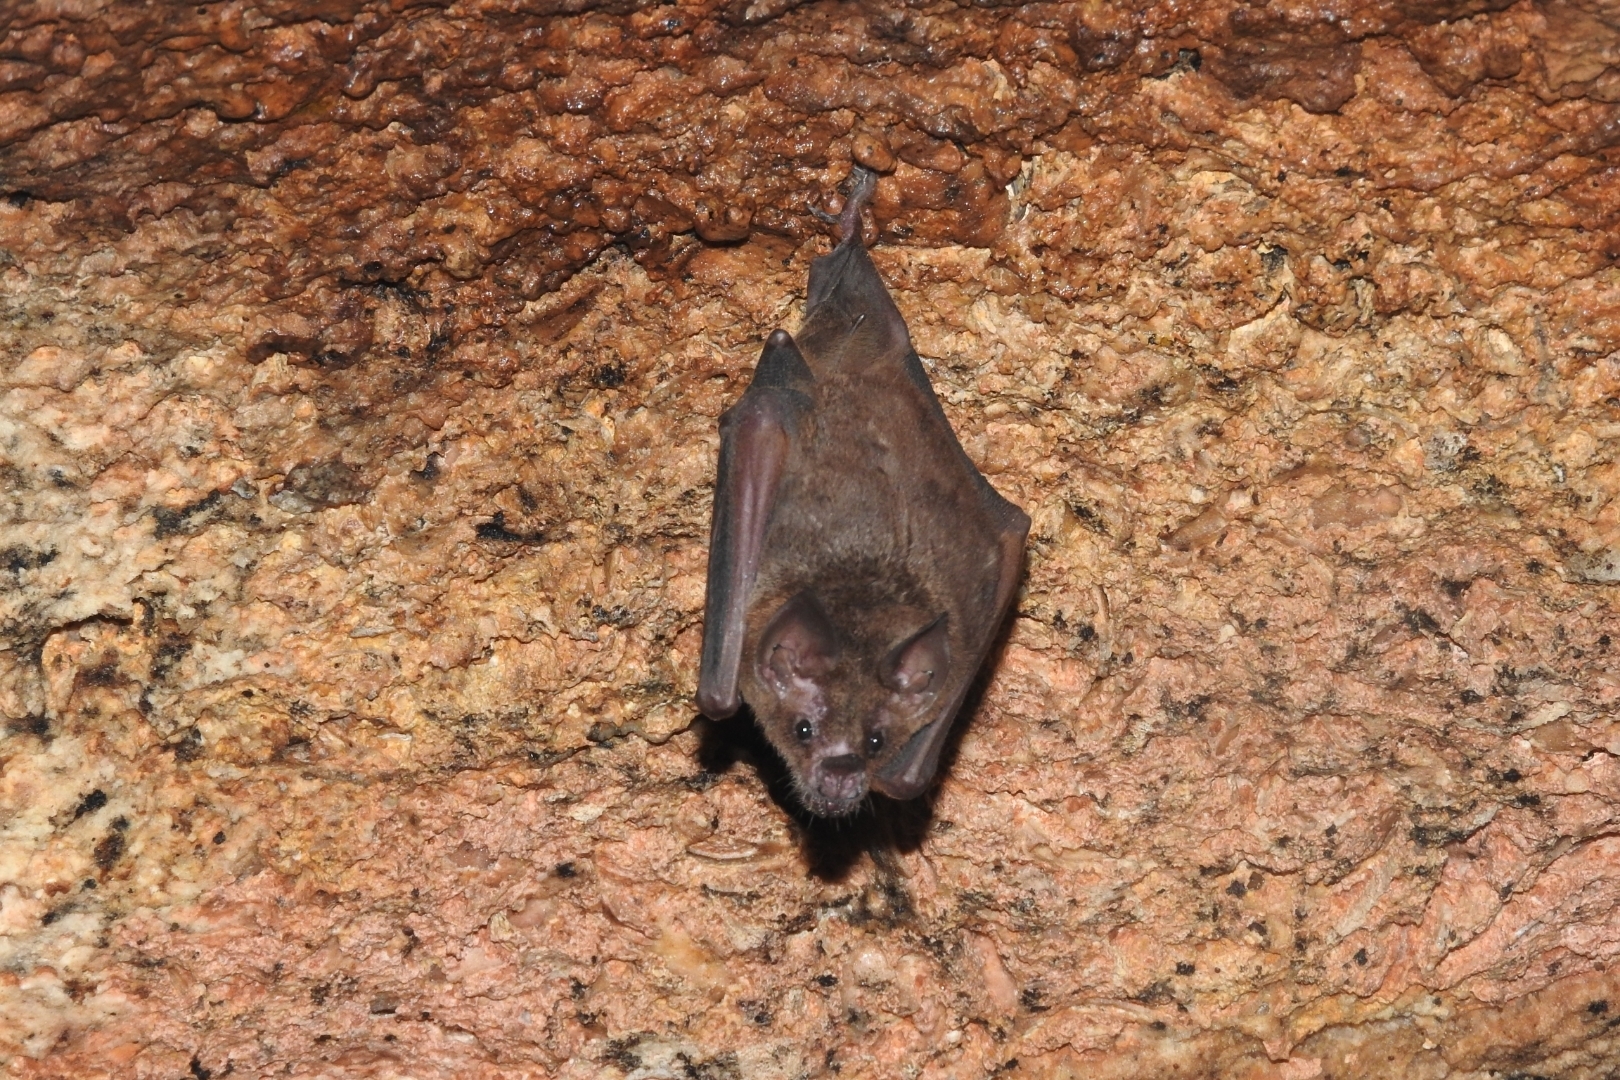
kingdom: Animalia
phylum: Chordata
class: Mammalia
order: Chiroptera
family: Phyllostomidae
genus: Carollia
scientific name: Carollia perspicillata
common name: Seba's short-tailed bat
